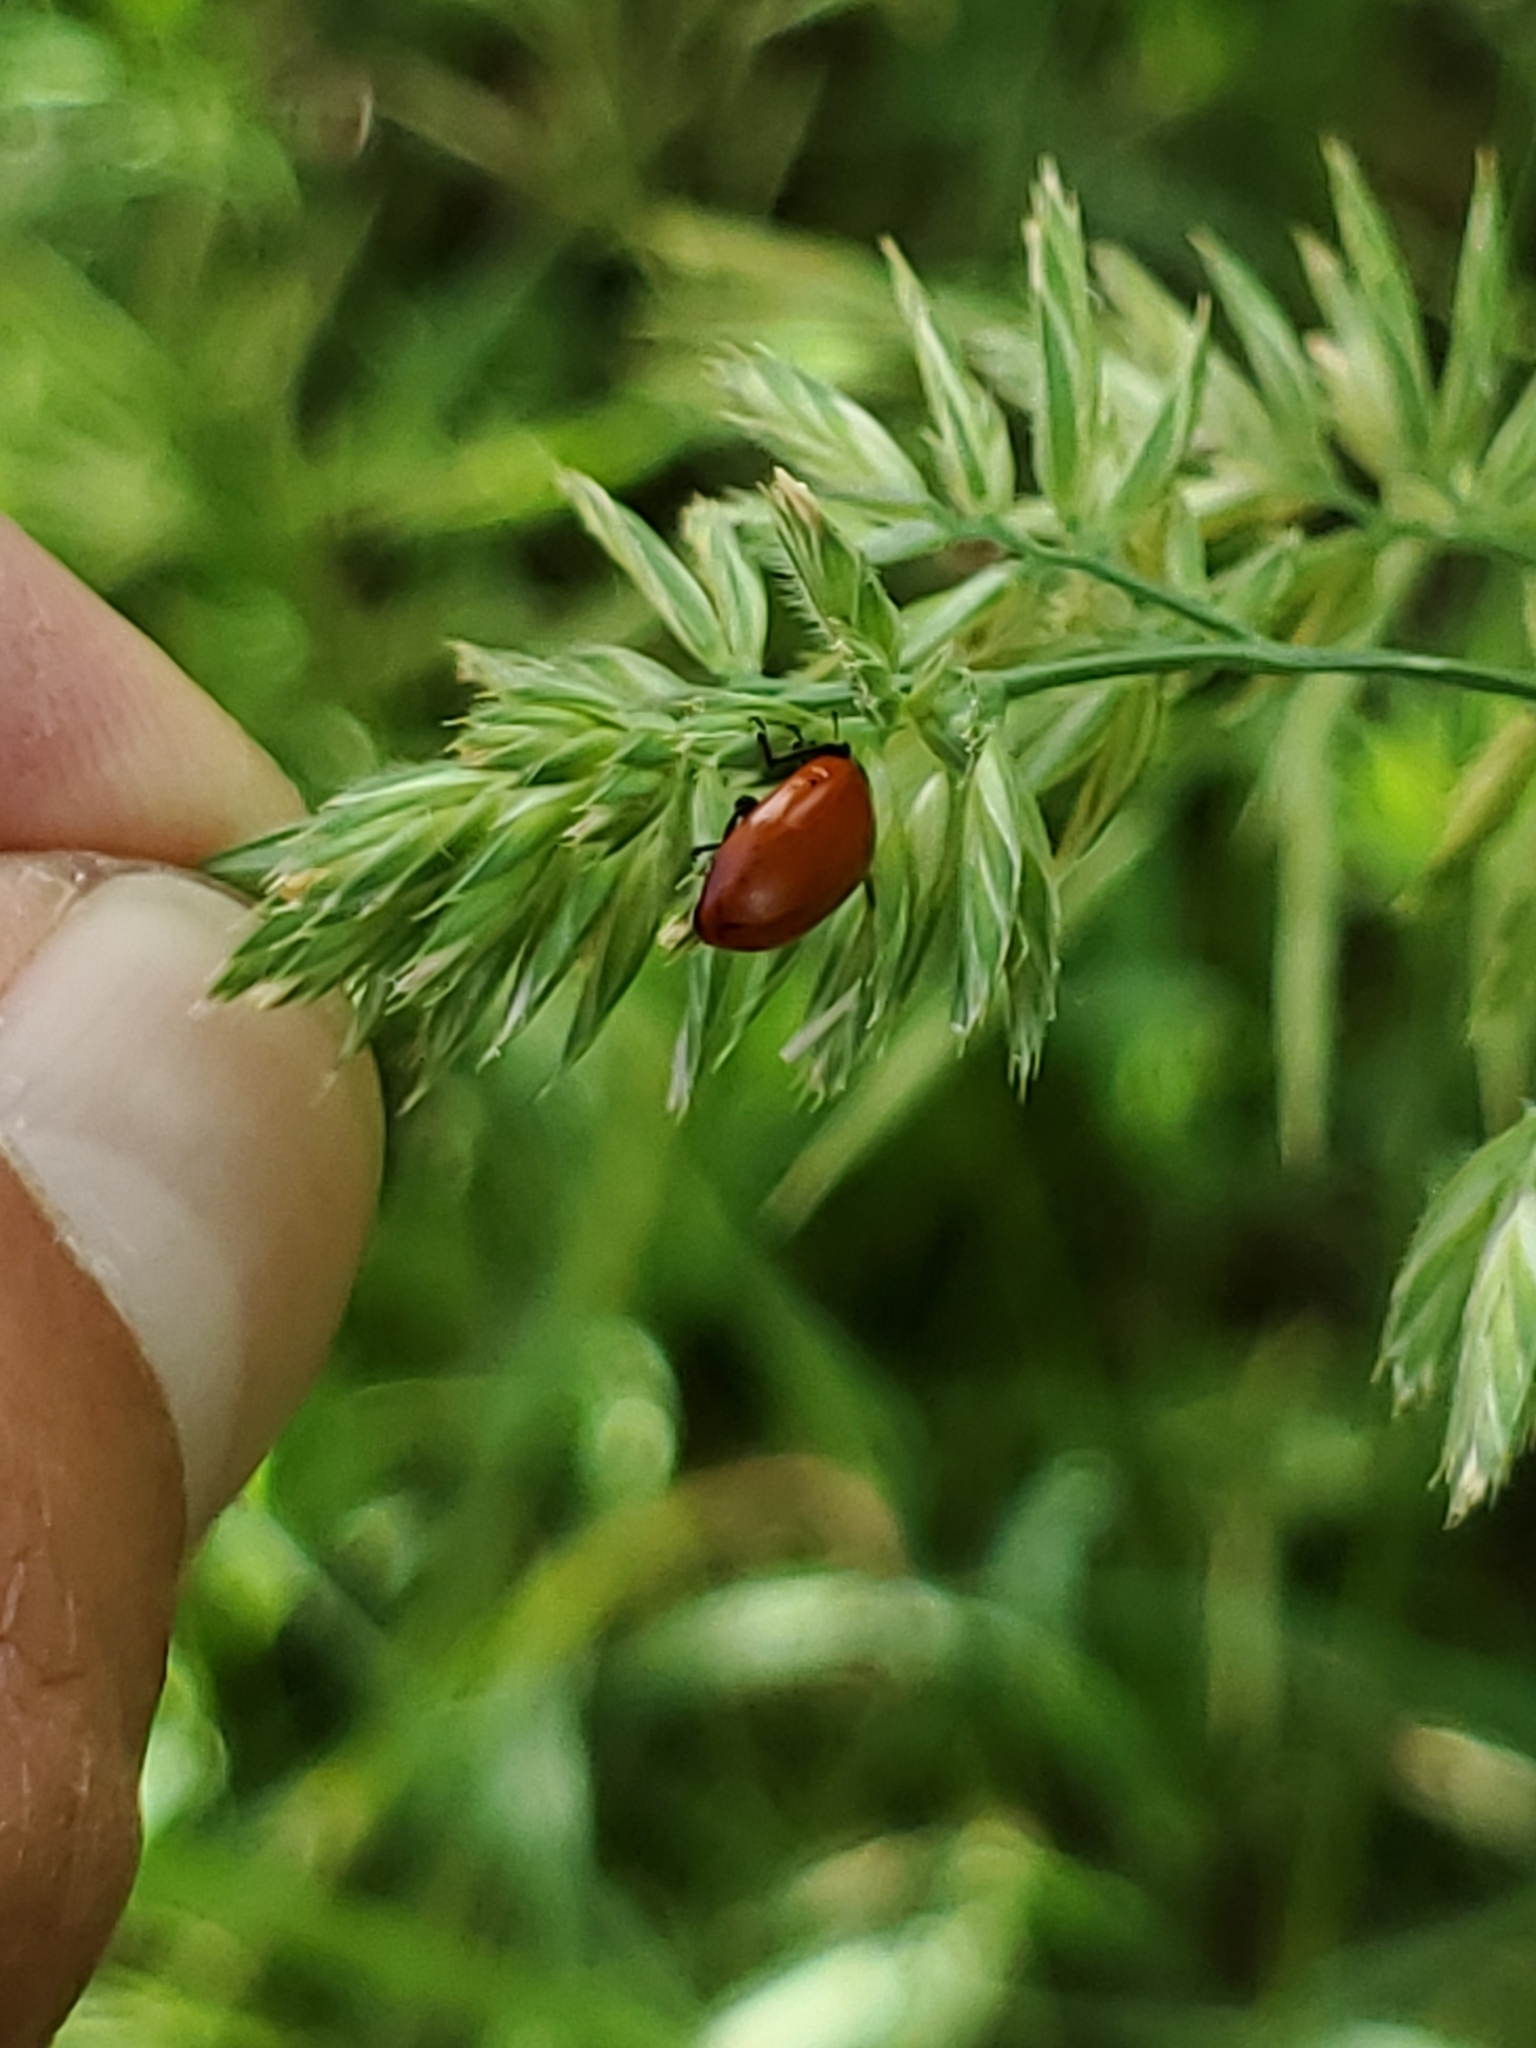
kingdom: Plantae
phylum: Tracheophyta
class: Liliopsida
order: Poales
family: Poaceae
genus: Dactylis
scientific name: Dactylis glomerata
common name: Orchardgrass
